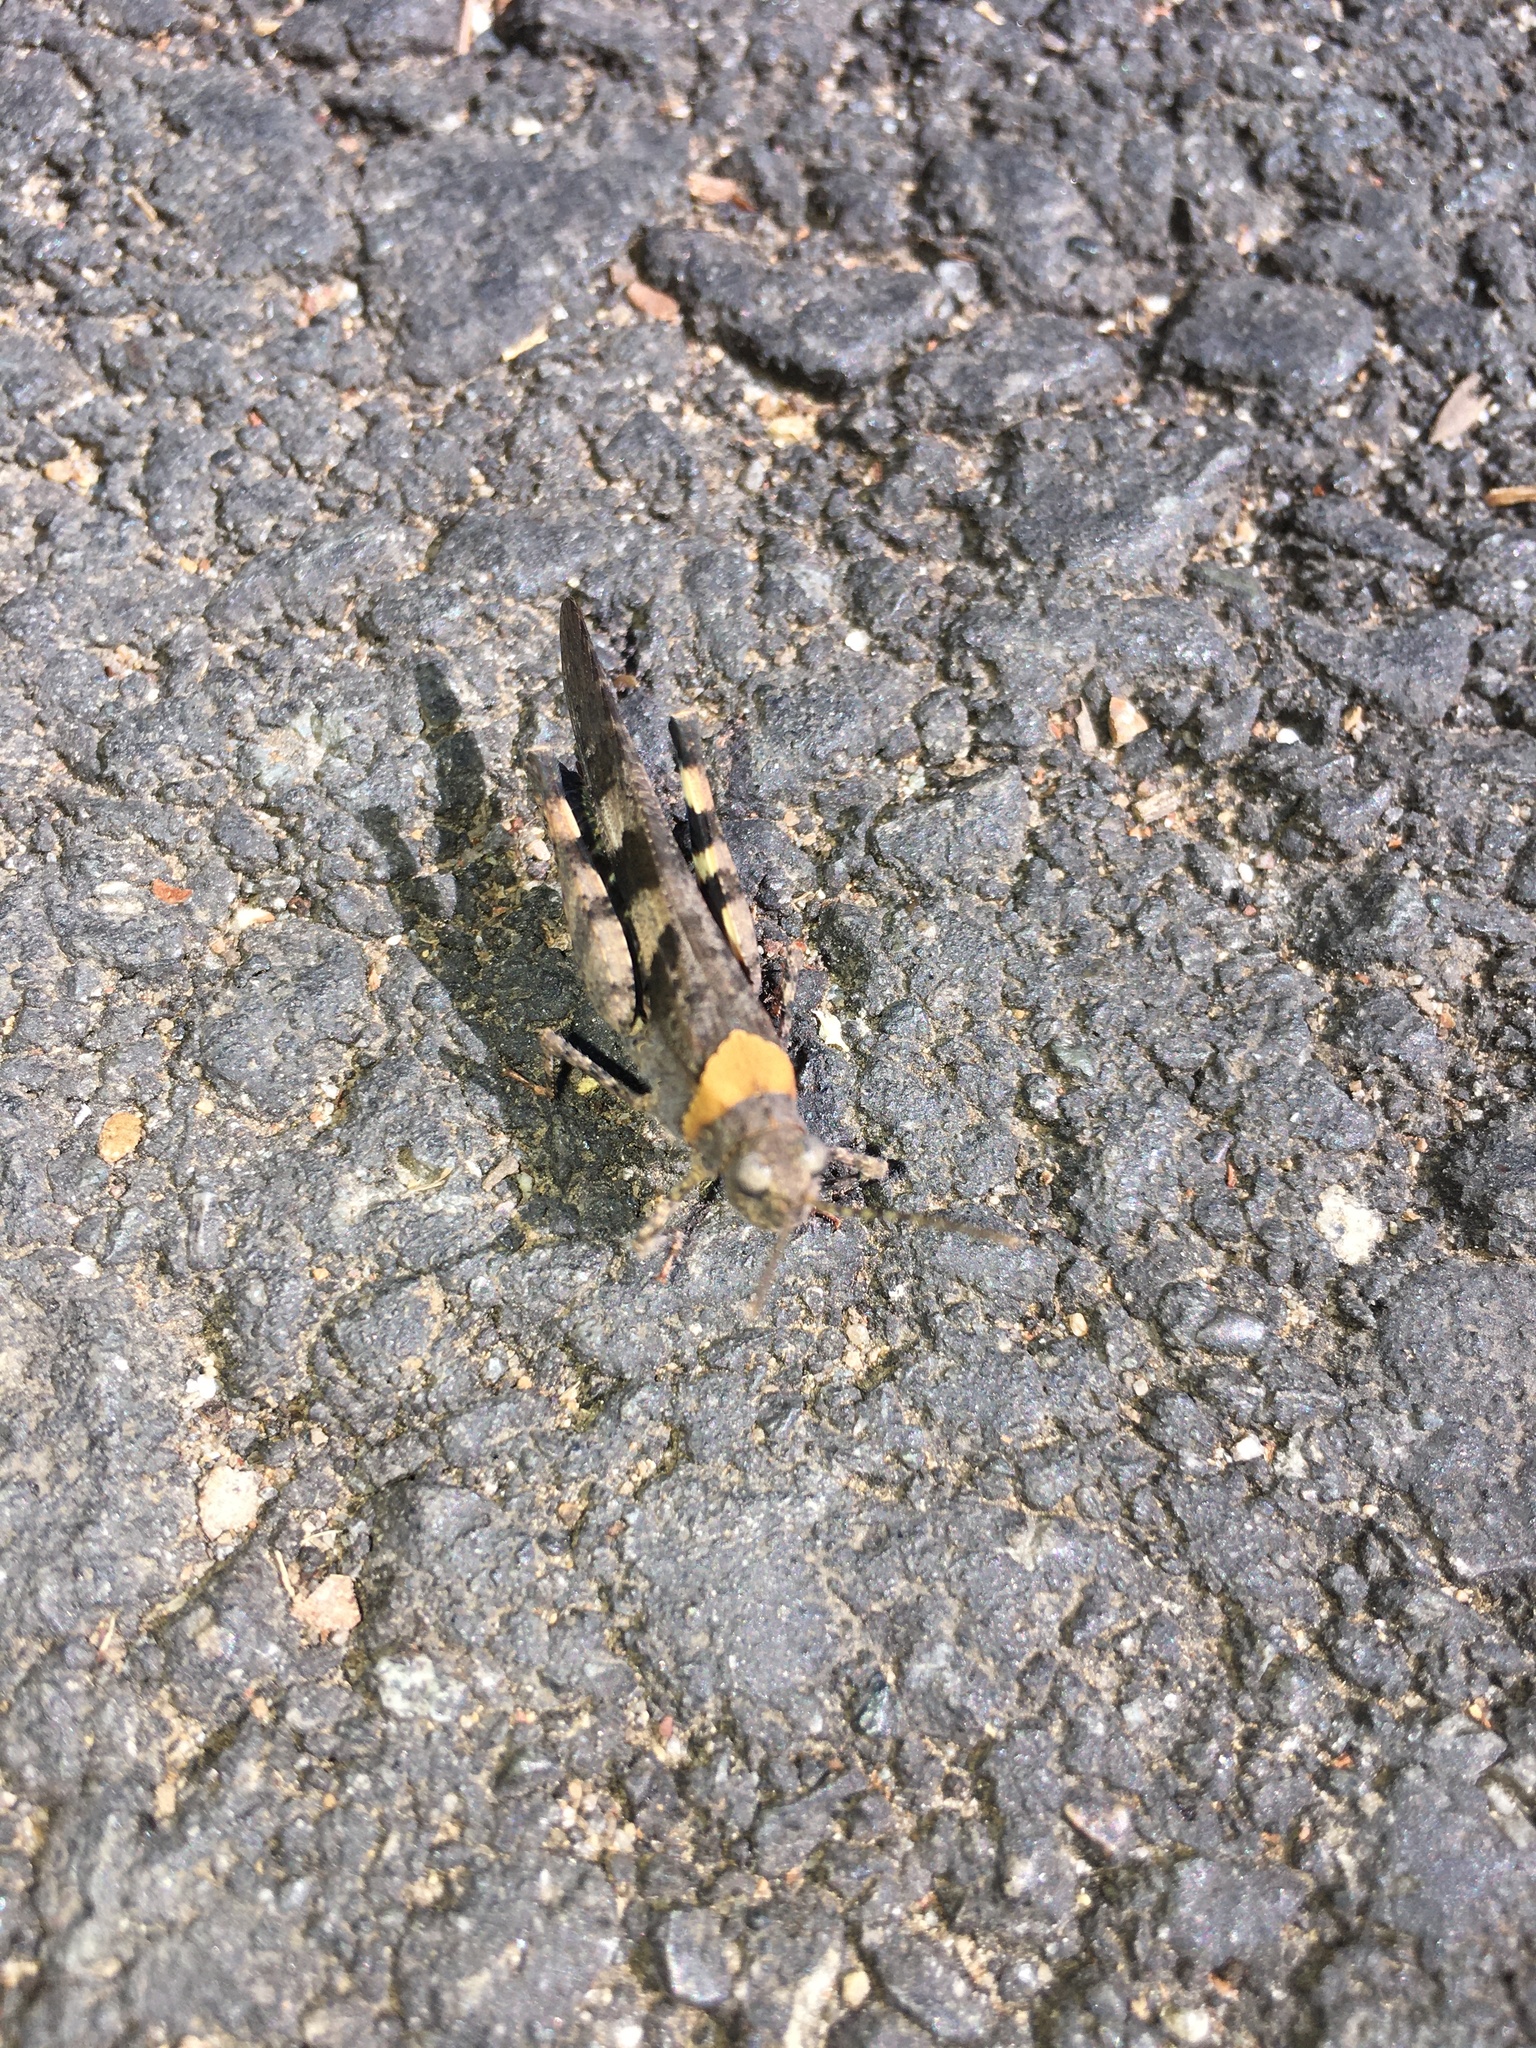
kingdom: Animalia
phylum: Arthropoda
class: Insecta
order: Orthoptera
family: Acrididae
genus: Trimerotropis
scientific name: Trimerotropis fontana
